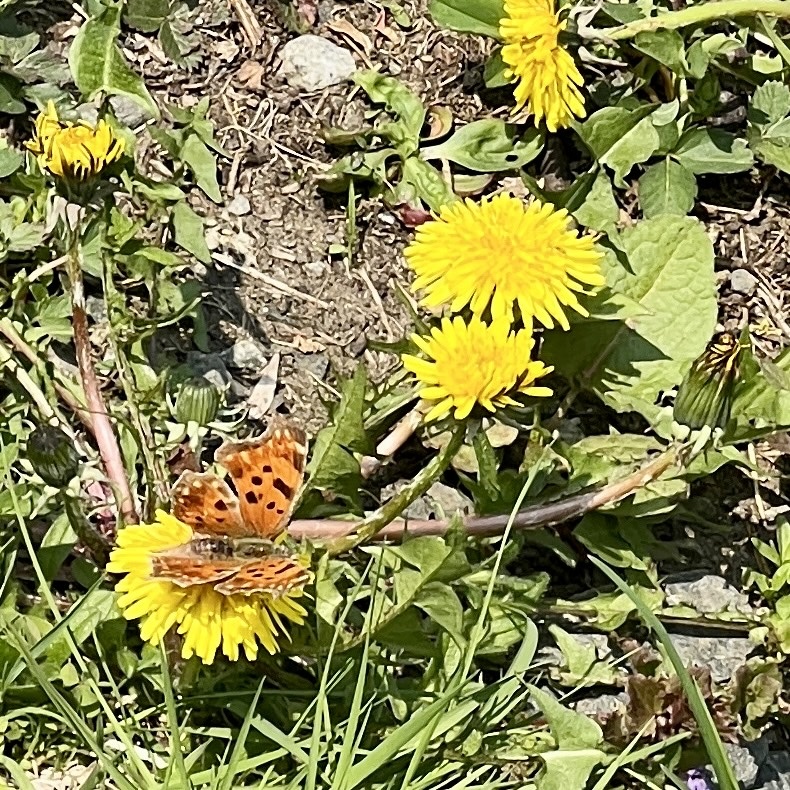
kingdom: Animalia
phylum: Arthropoda
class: Insecta
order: Lepidoptera
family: Nymphalidae
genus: Polygonia
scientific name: Polygonia comma
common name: Eastern comma
